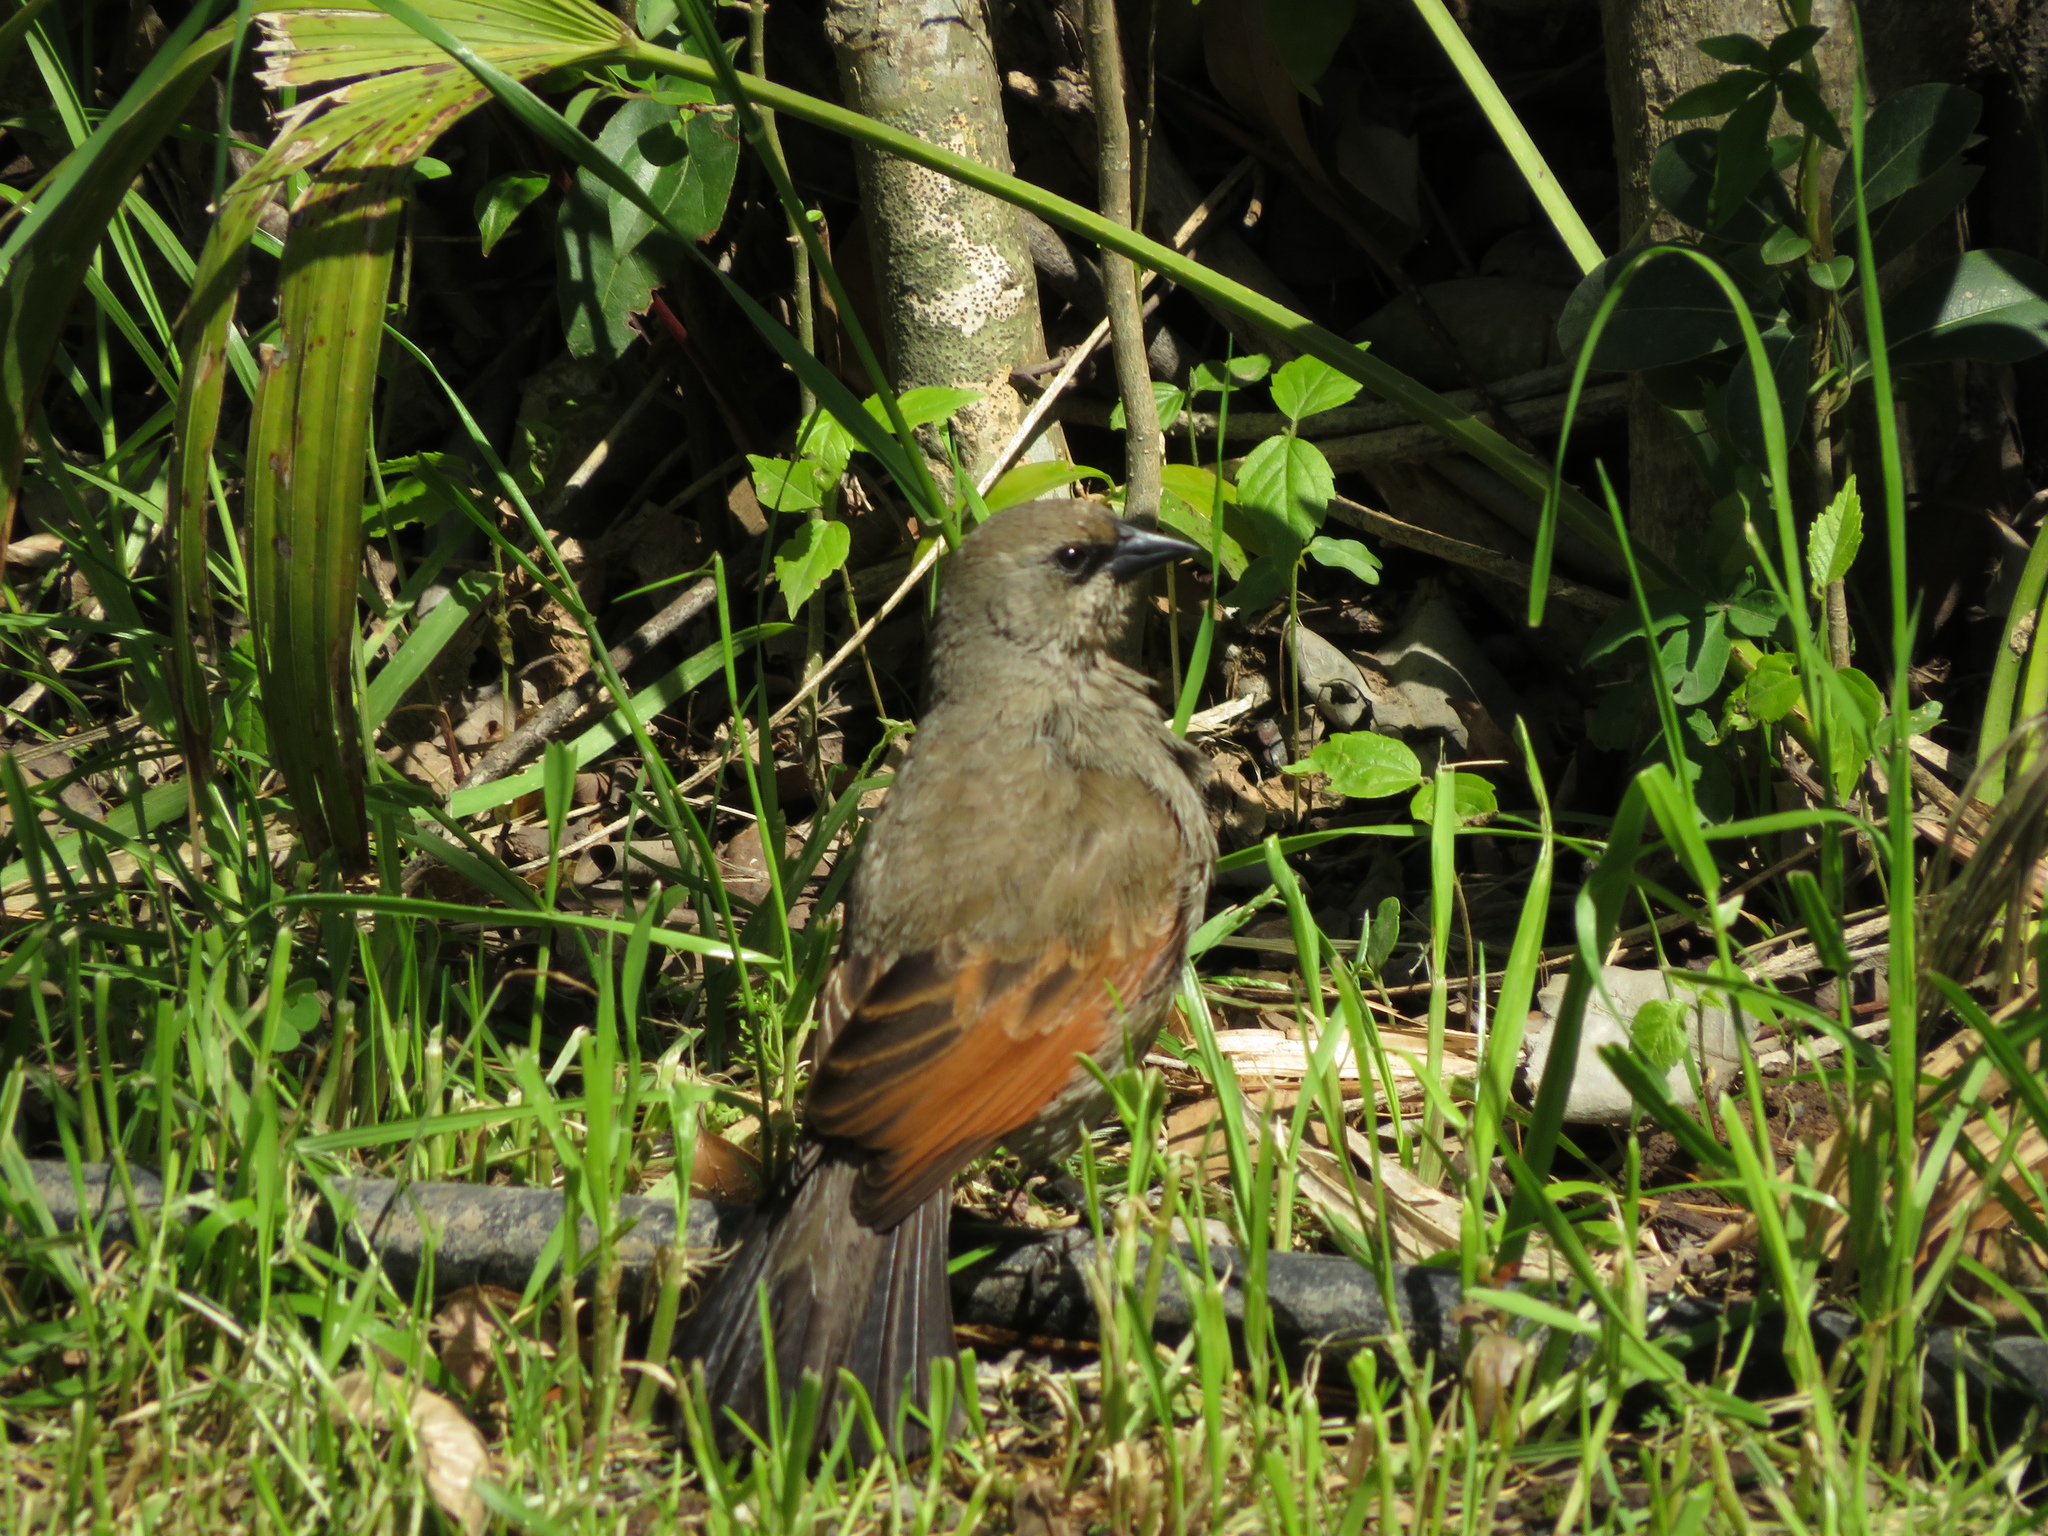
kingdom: Animalia
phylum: Chordata
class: Aves
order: Passeriformes
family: Icteridae
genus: Agelaioides
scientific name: Agelaioides badius
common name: Baywing
